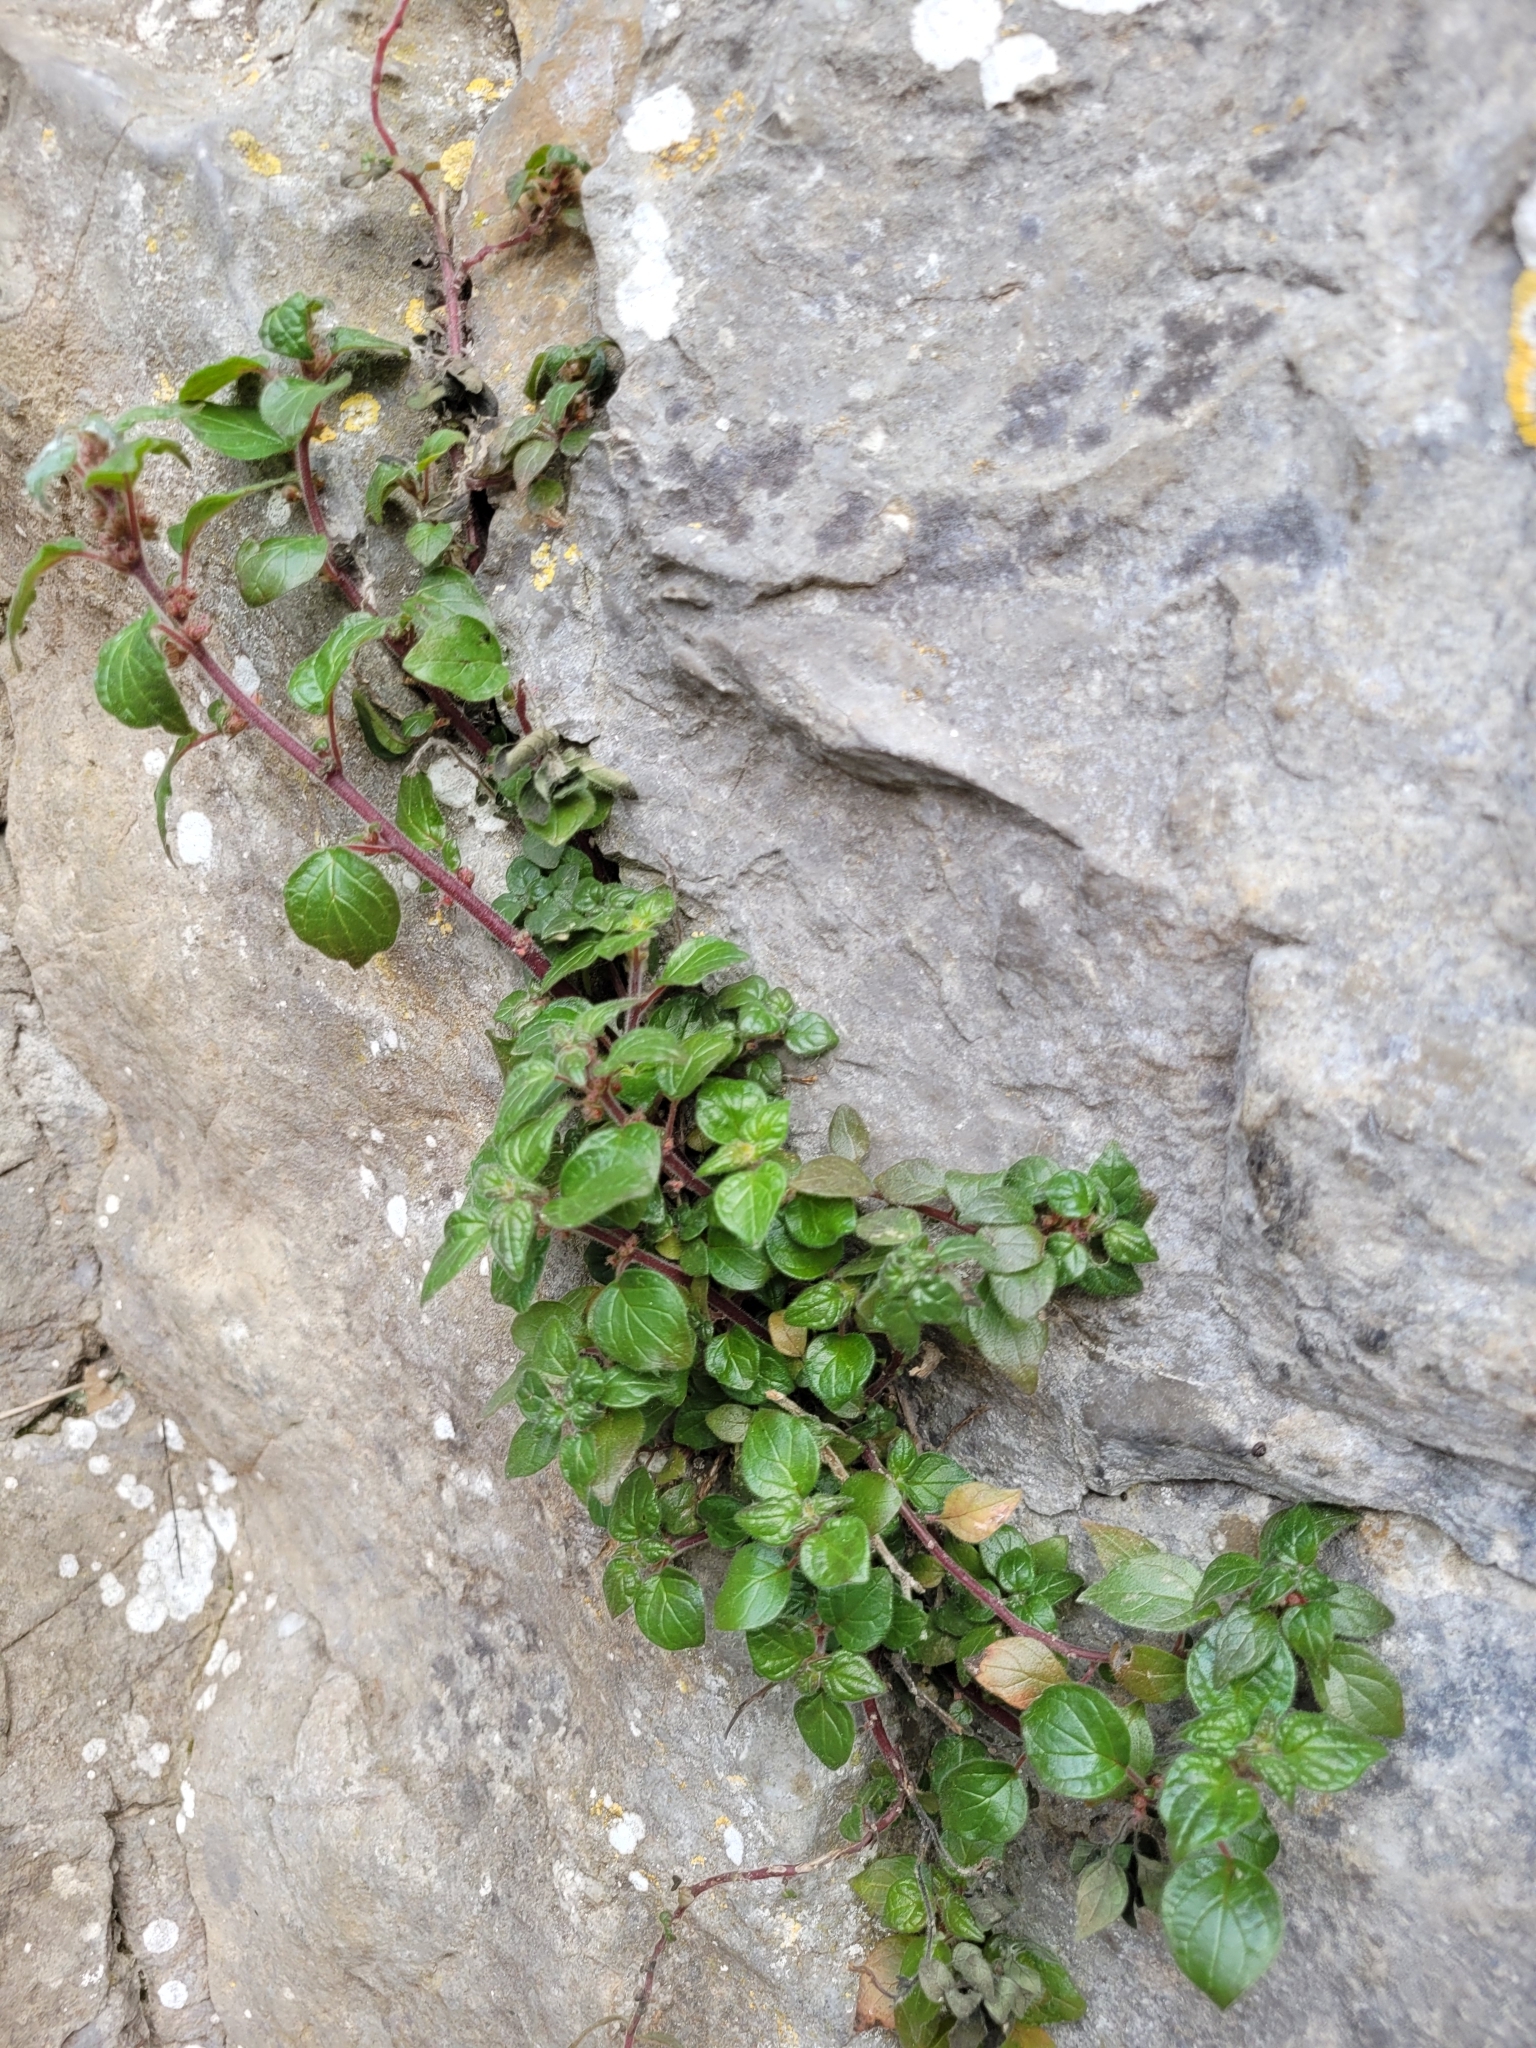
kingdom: Plantae
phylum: Tracheophyta
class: Magnoliopsida
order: Rosales
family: Urticaceae
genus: Parietaria
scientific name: Parietaria judaica
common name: Pellitory-of-the-wall
